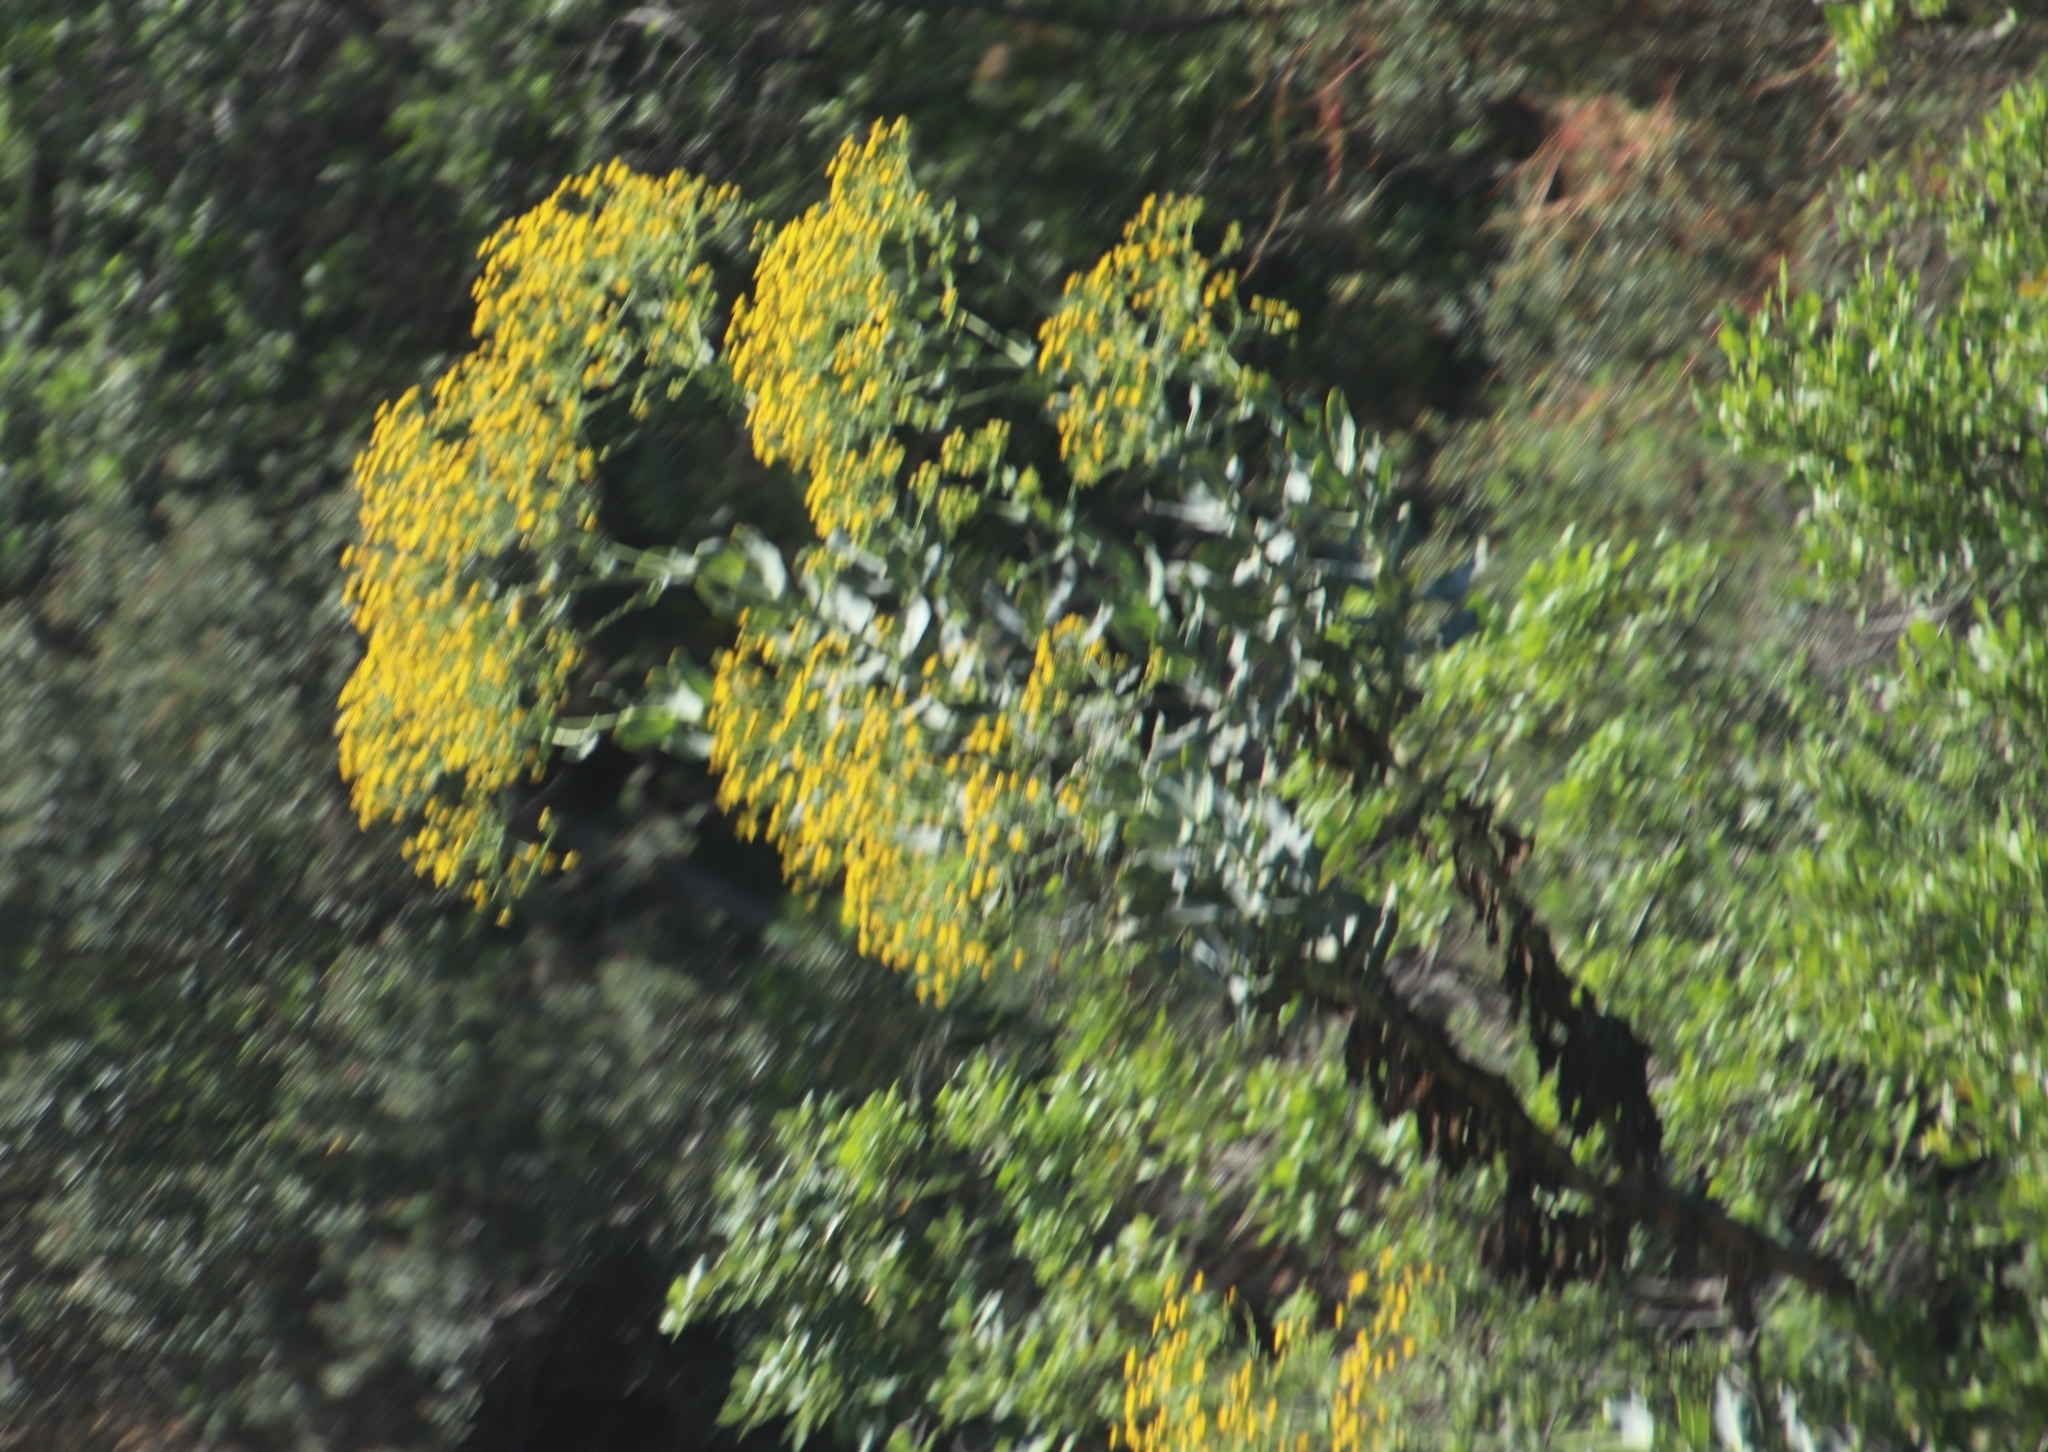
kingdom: Plantae
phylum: Tracheophyta
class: Magnoliopsida
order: Asterales
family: Asteraceae
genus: Othonna
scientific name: Othonna parviflora
